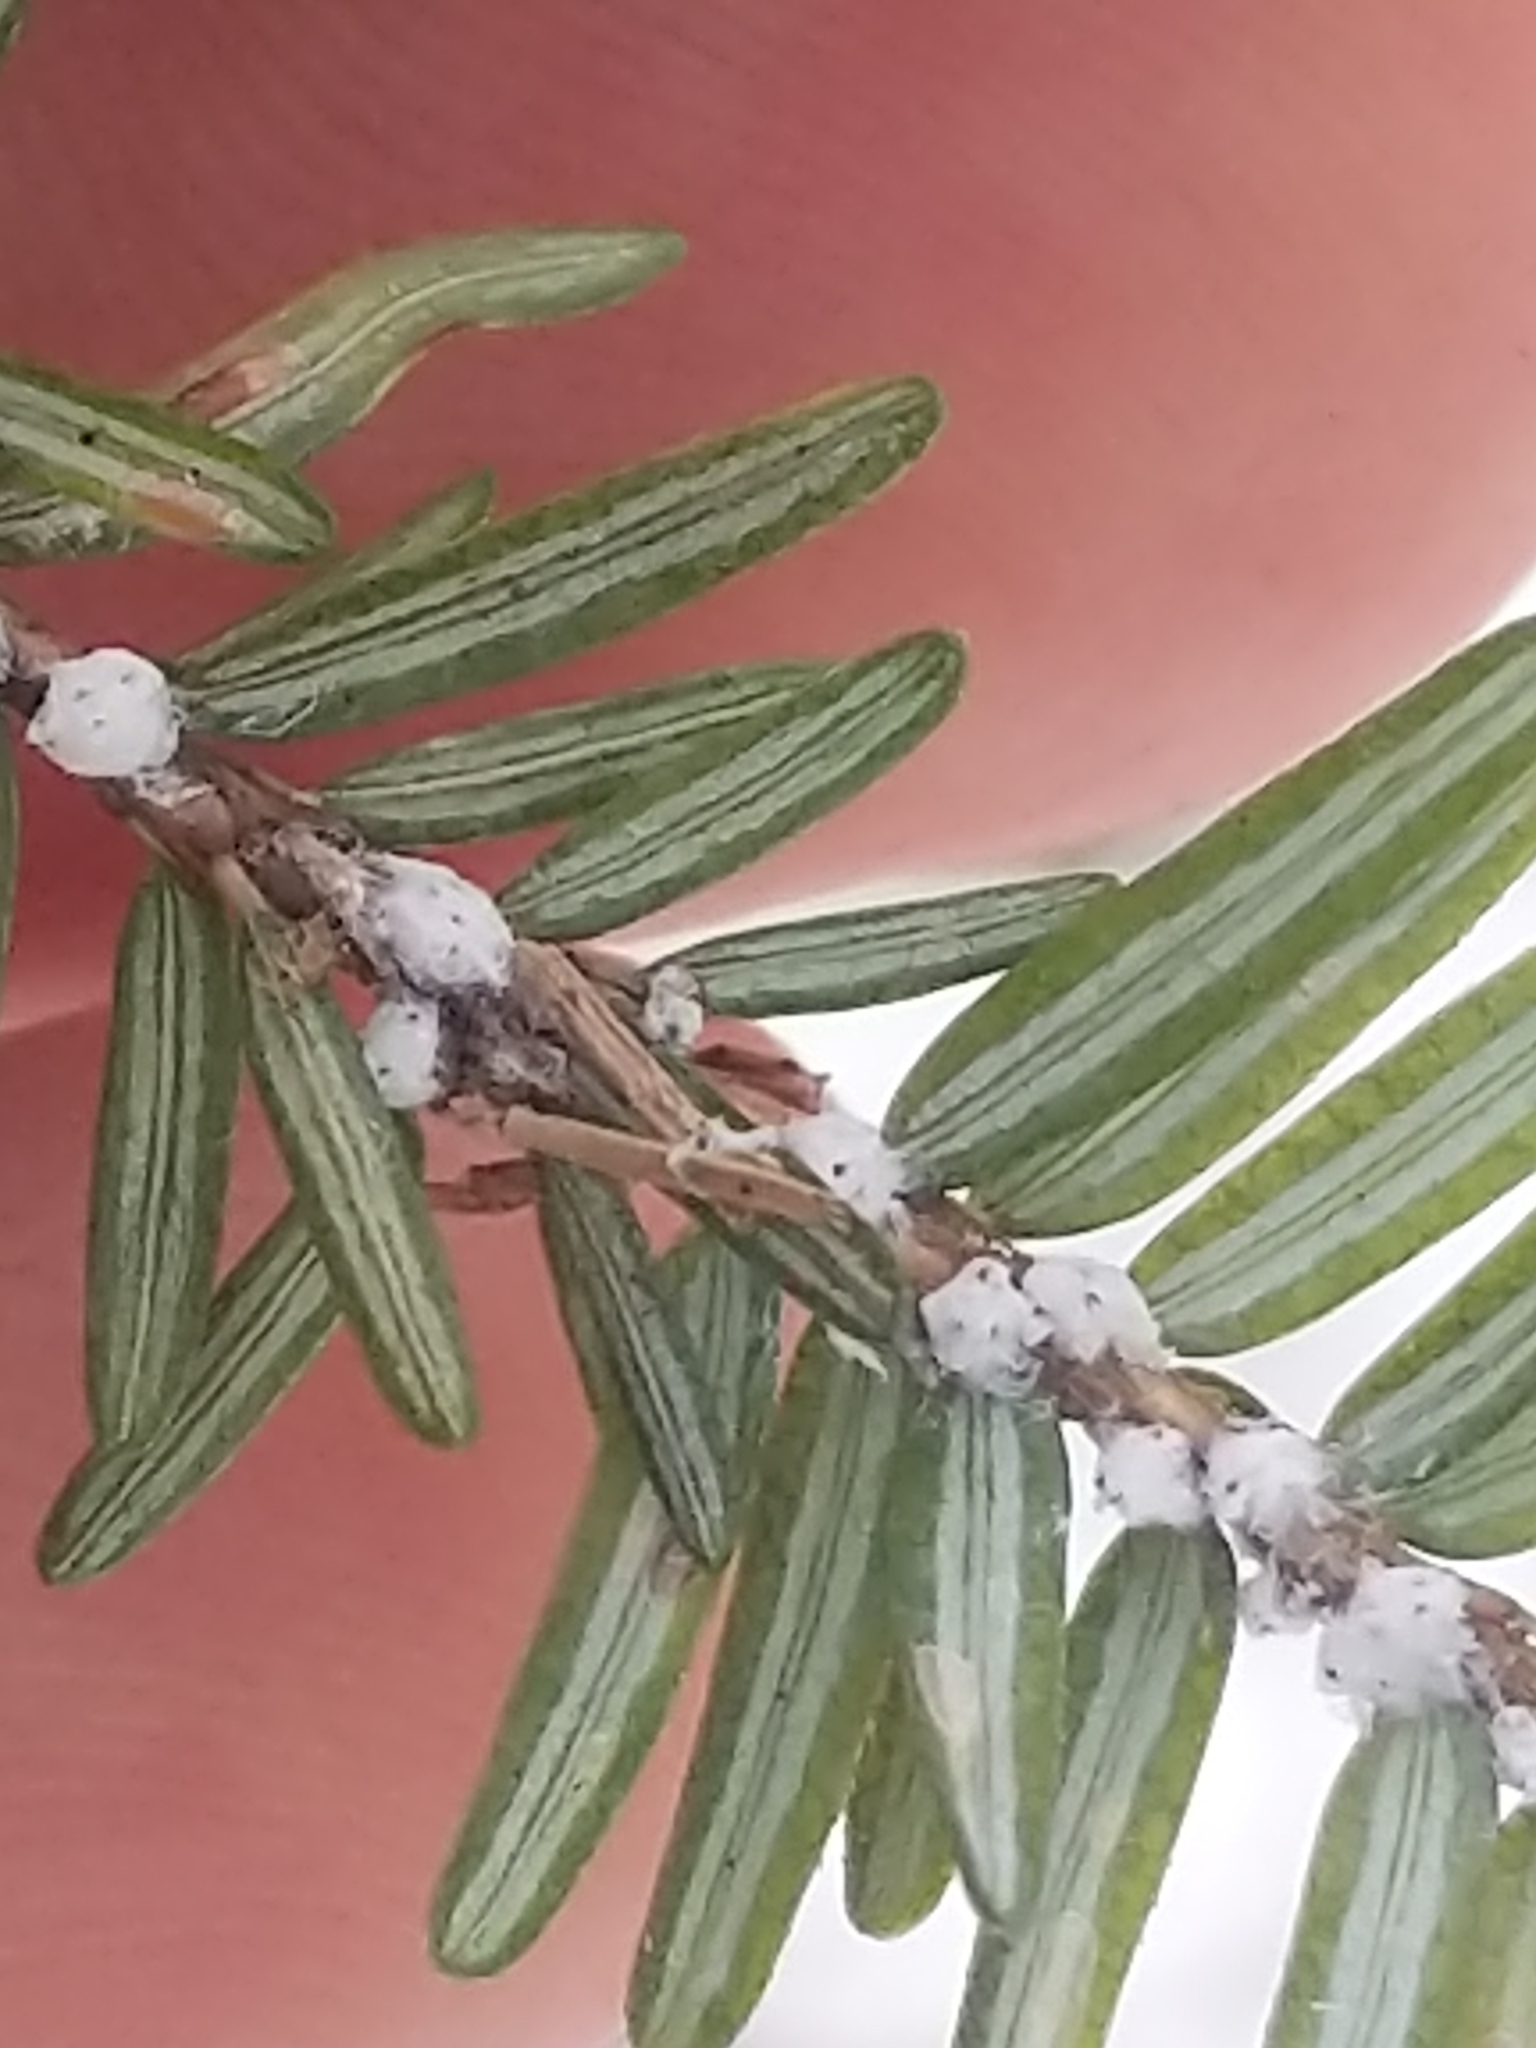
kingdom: Animalia
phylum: Arthropoda
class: Insecta
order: Hemiptera
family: Adelgidae
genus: Adelges
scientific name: Adelges tsugae
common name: Hemlock woolly adelgid
